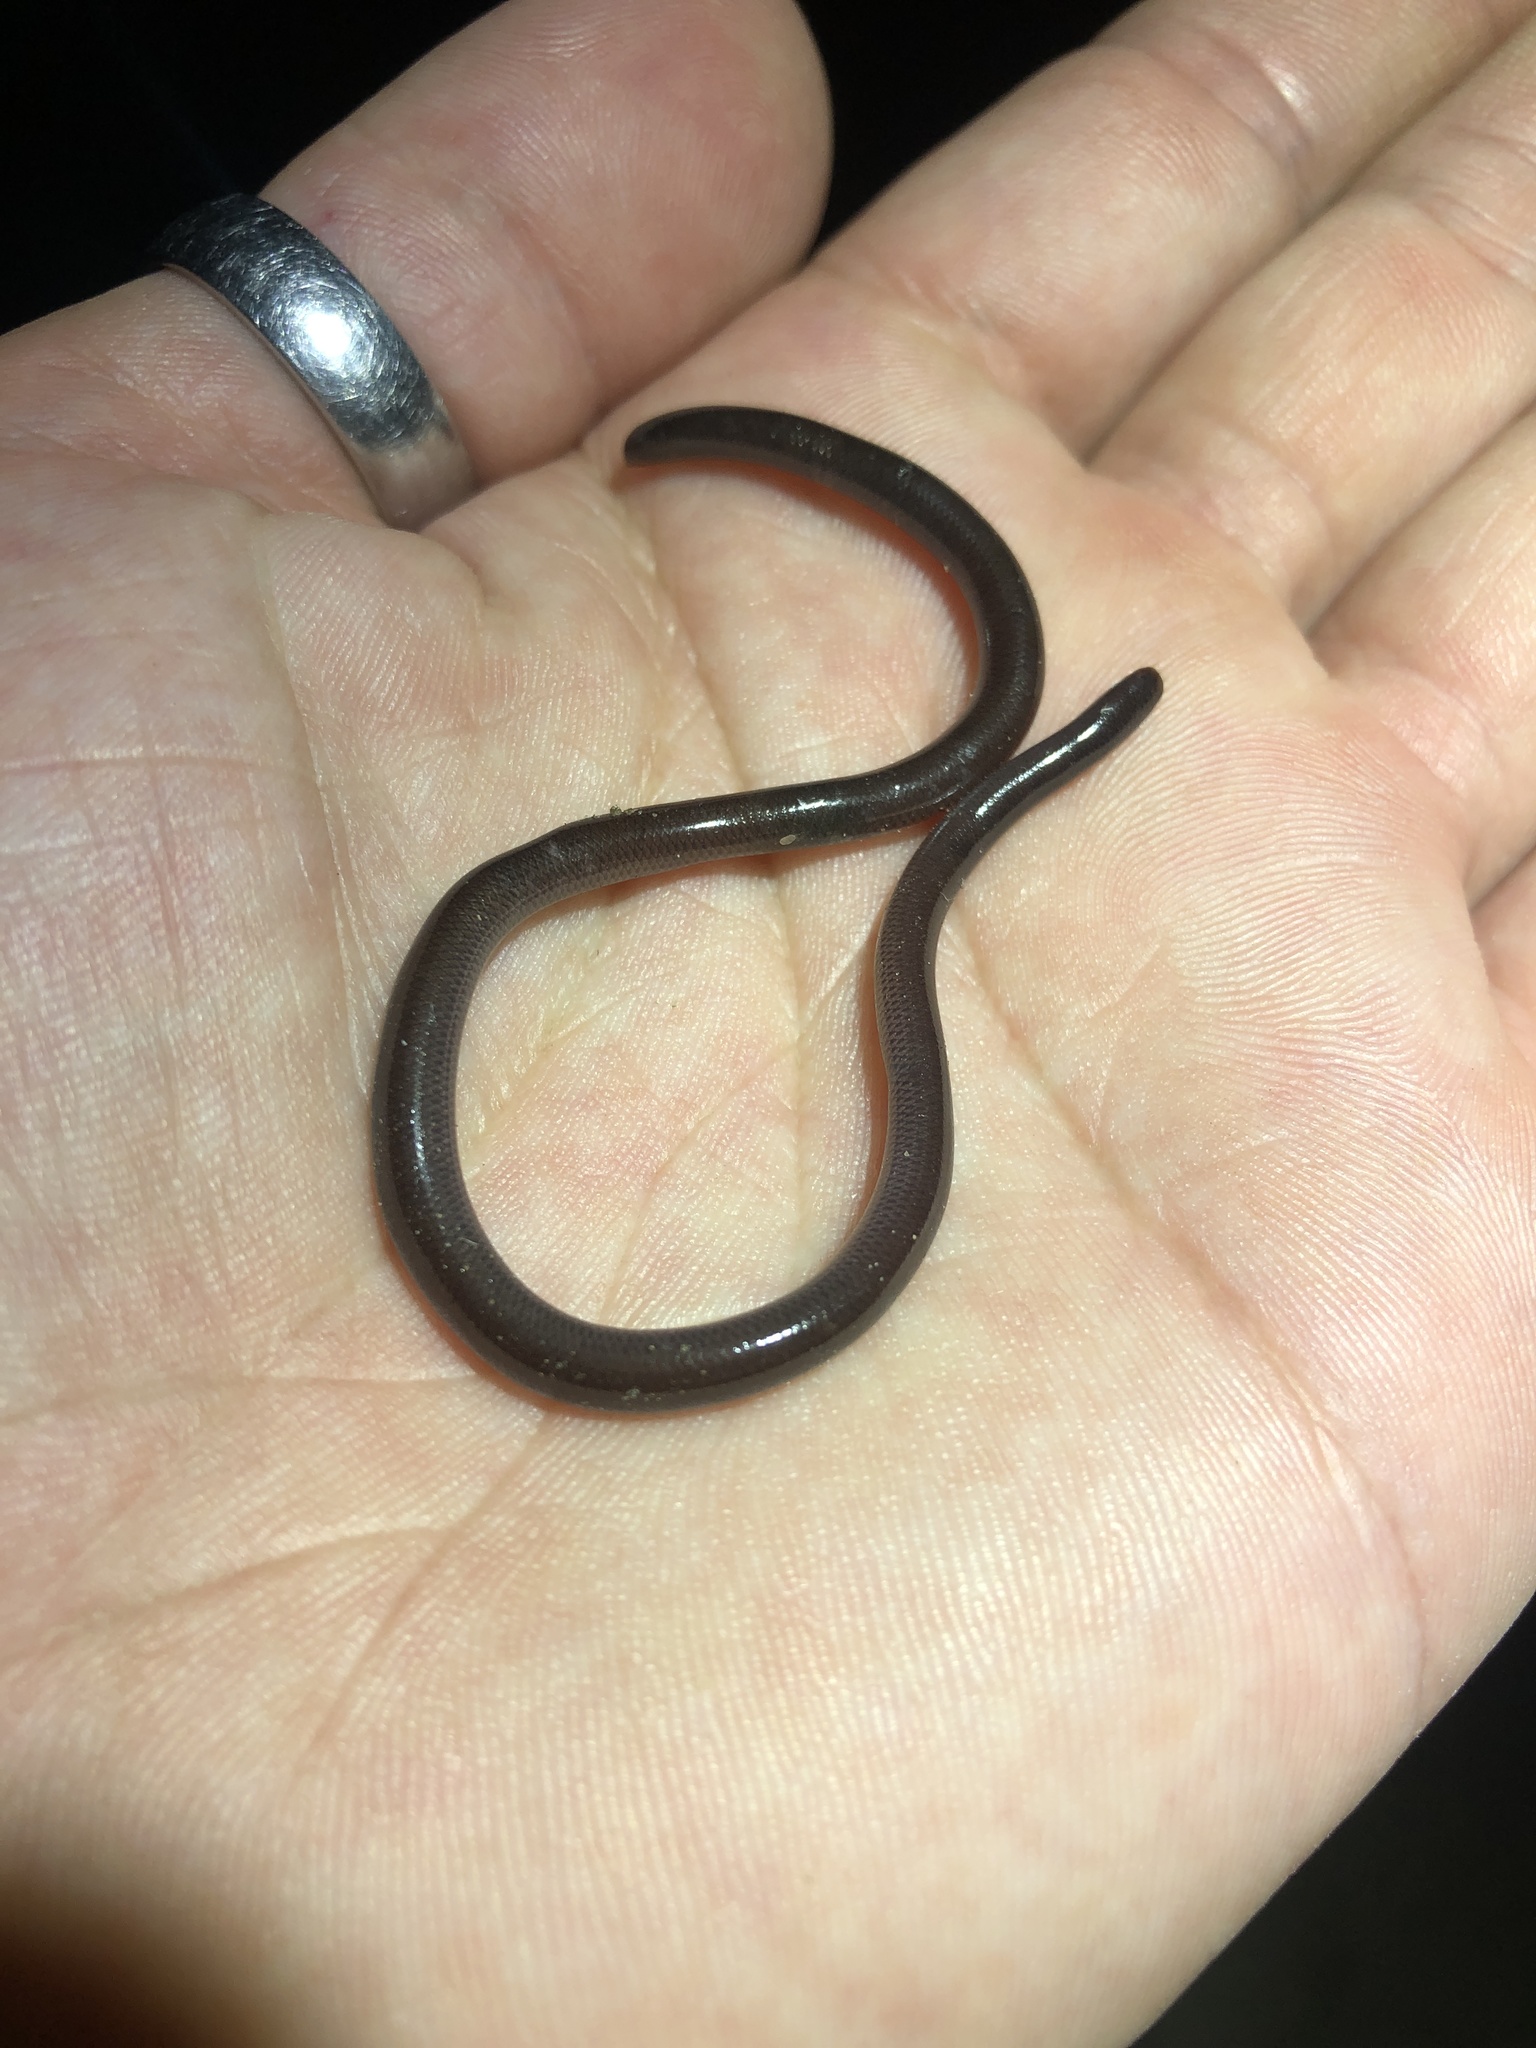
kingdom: Animalia
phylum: Chordata
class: Squamata
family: Typhlopidae
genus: Indotyphlops
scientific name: Indotyphlops braminus
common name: Brahminy blindsnake
